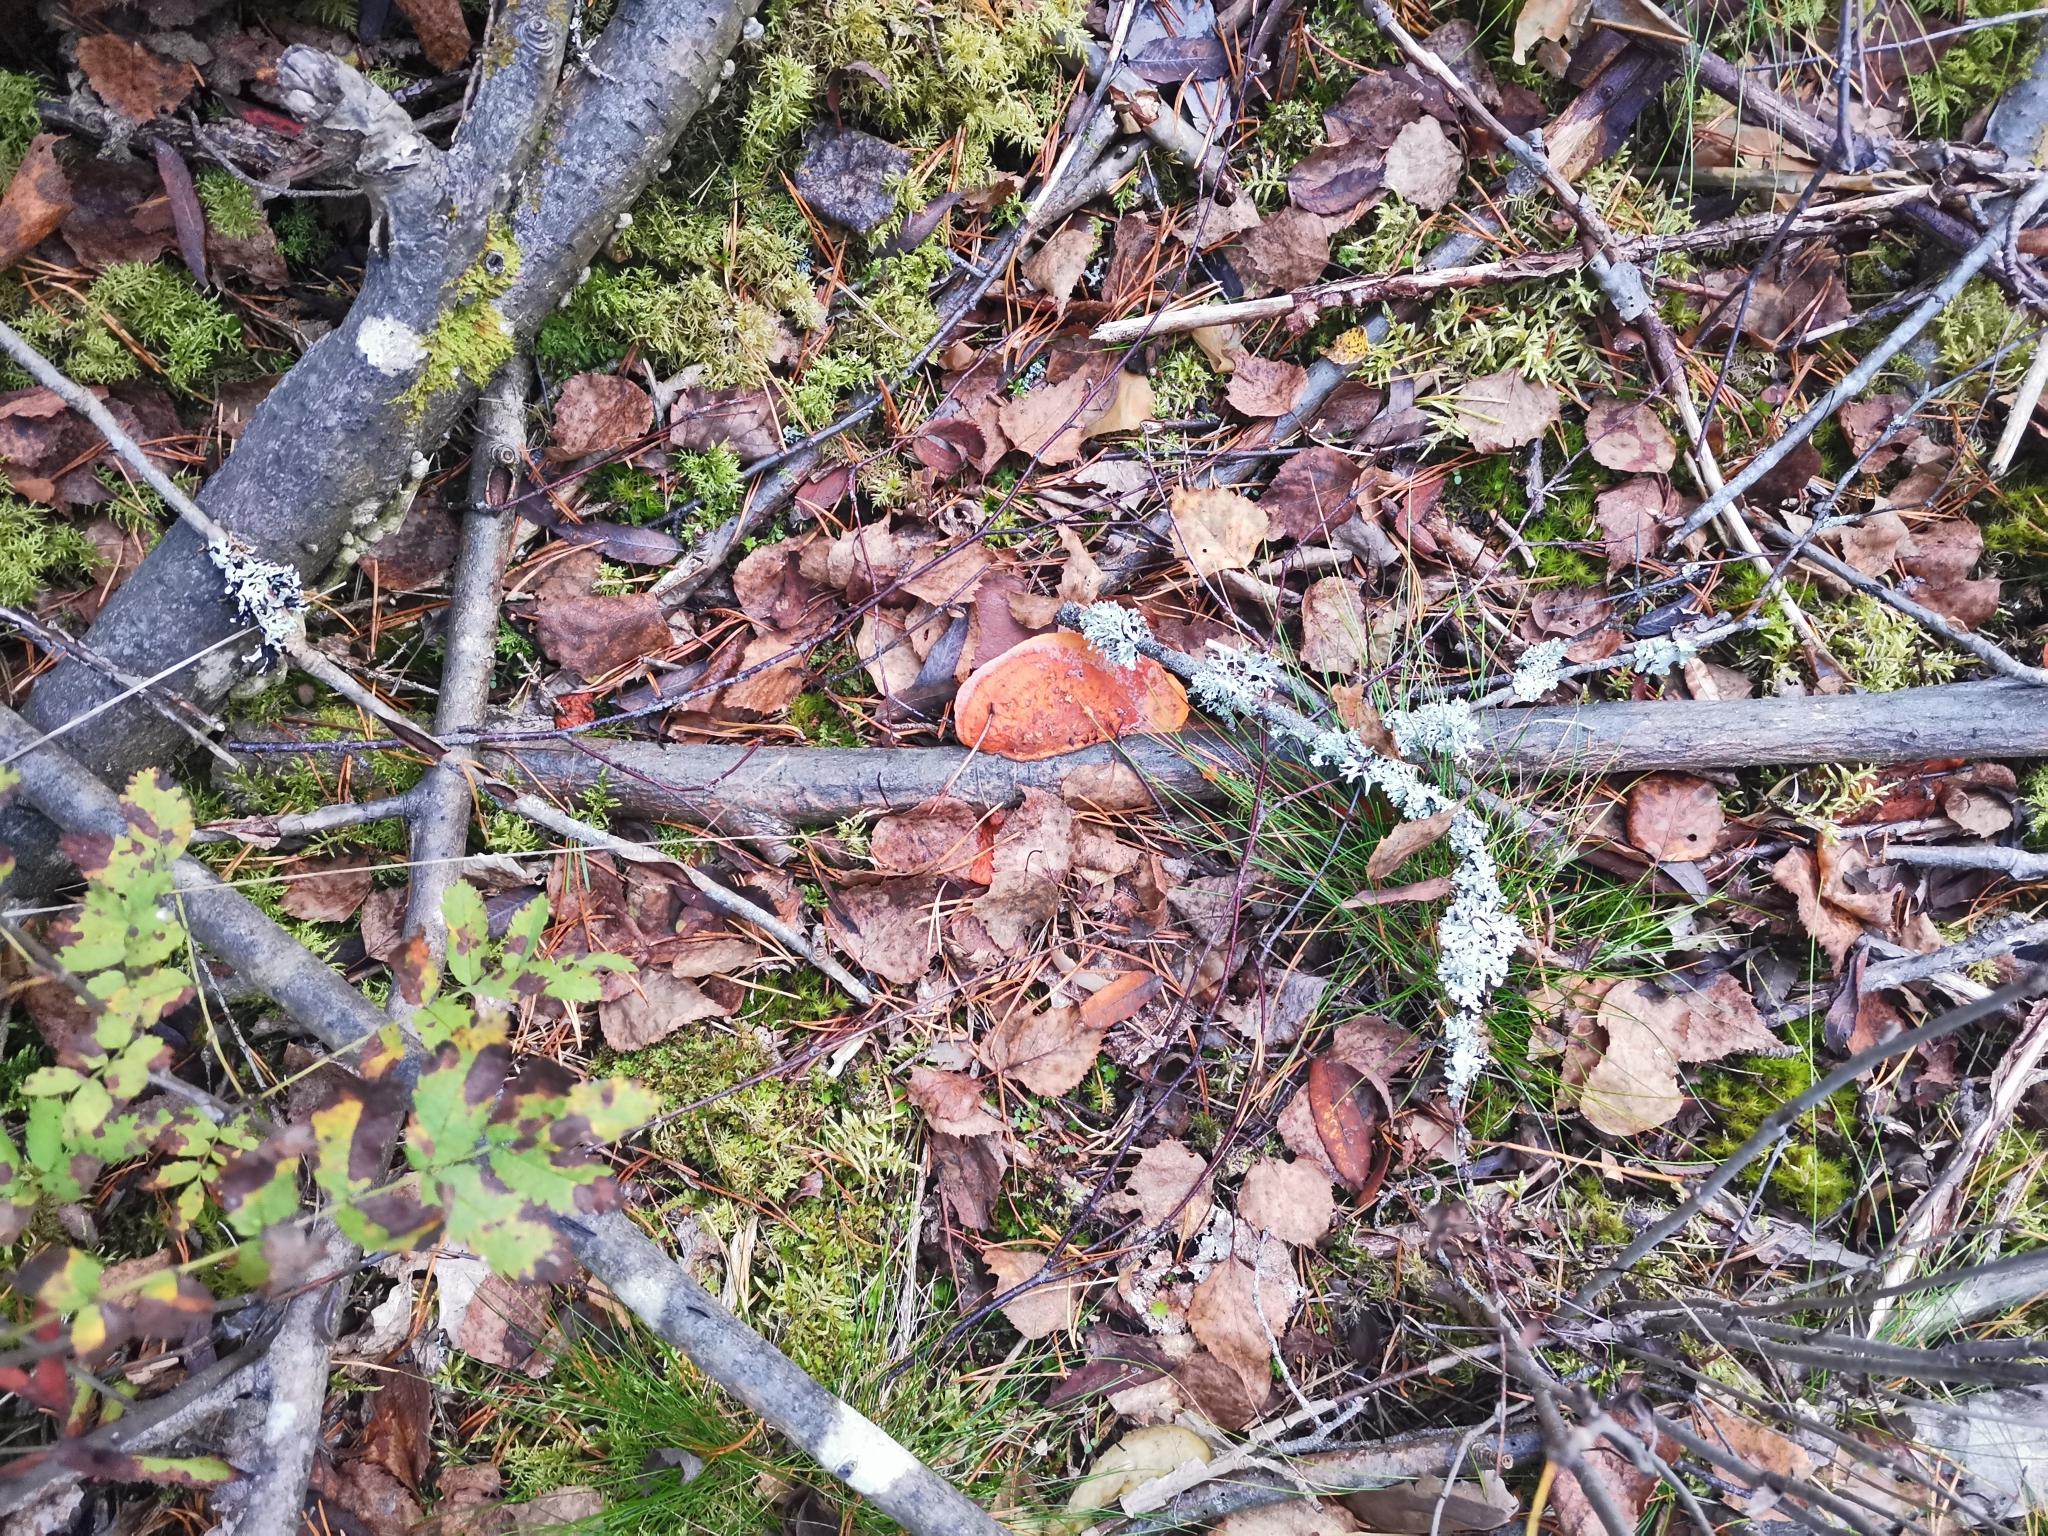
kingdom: Fungi
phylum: Basidiomycota
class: Agaricomycetes
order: Polyporales
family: Polyporaceae
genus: Trametes
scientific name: Trametes cinnabarina
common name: Northern cinnabar polypore
